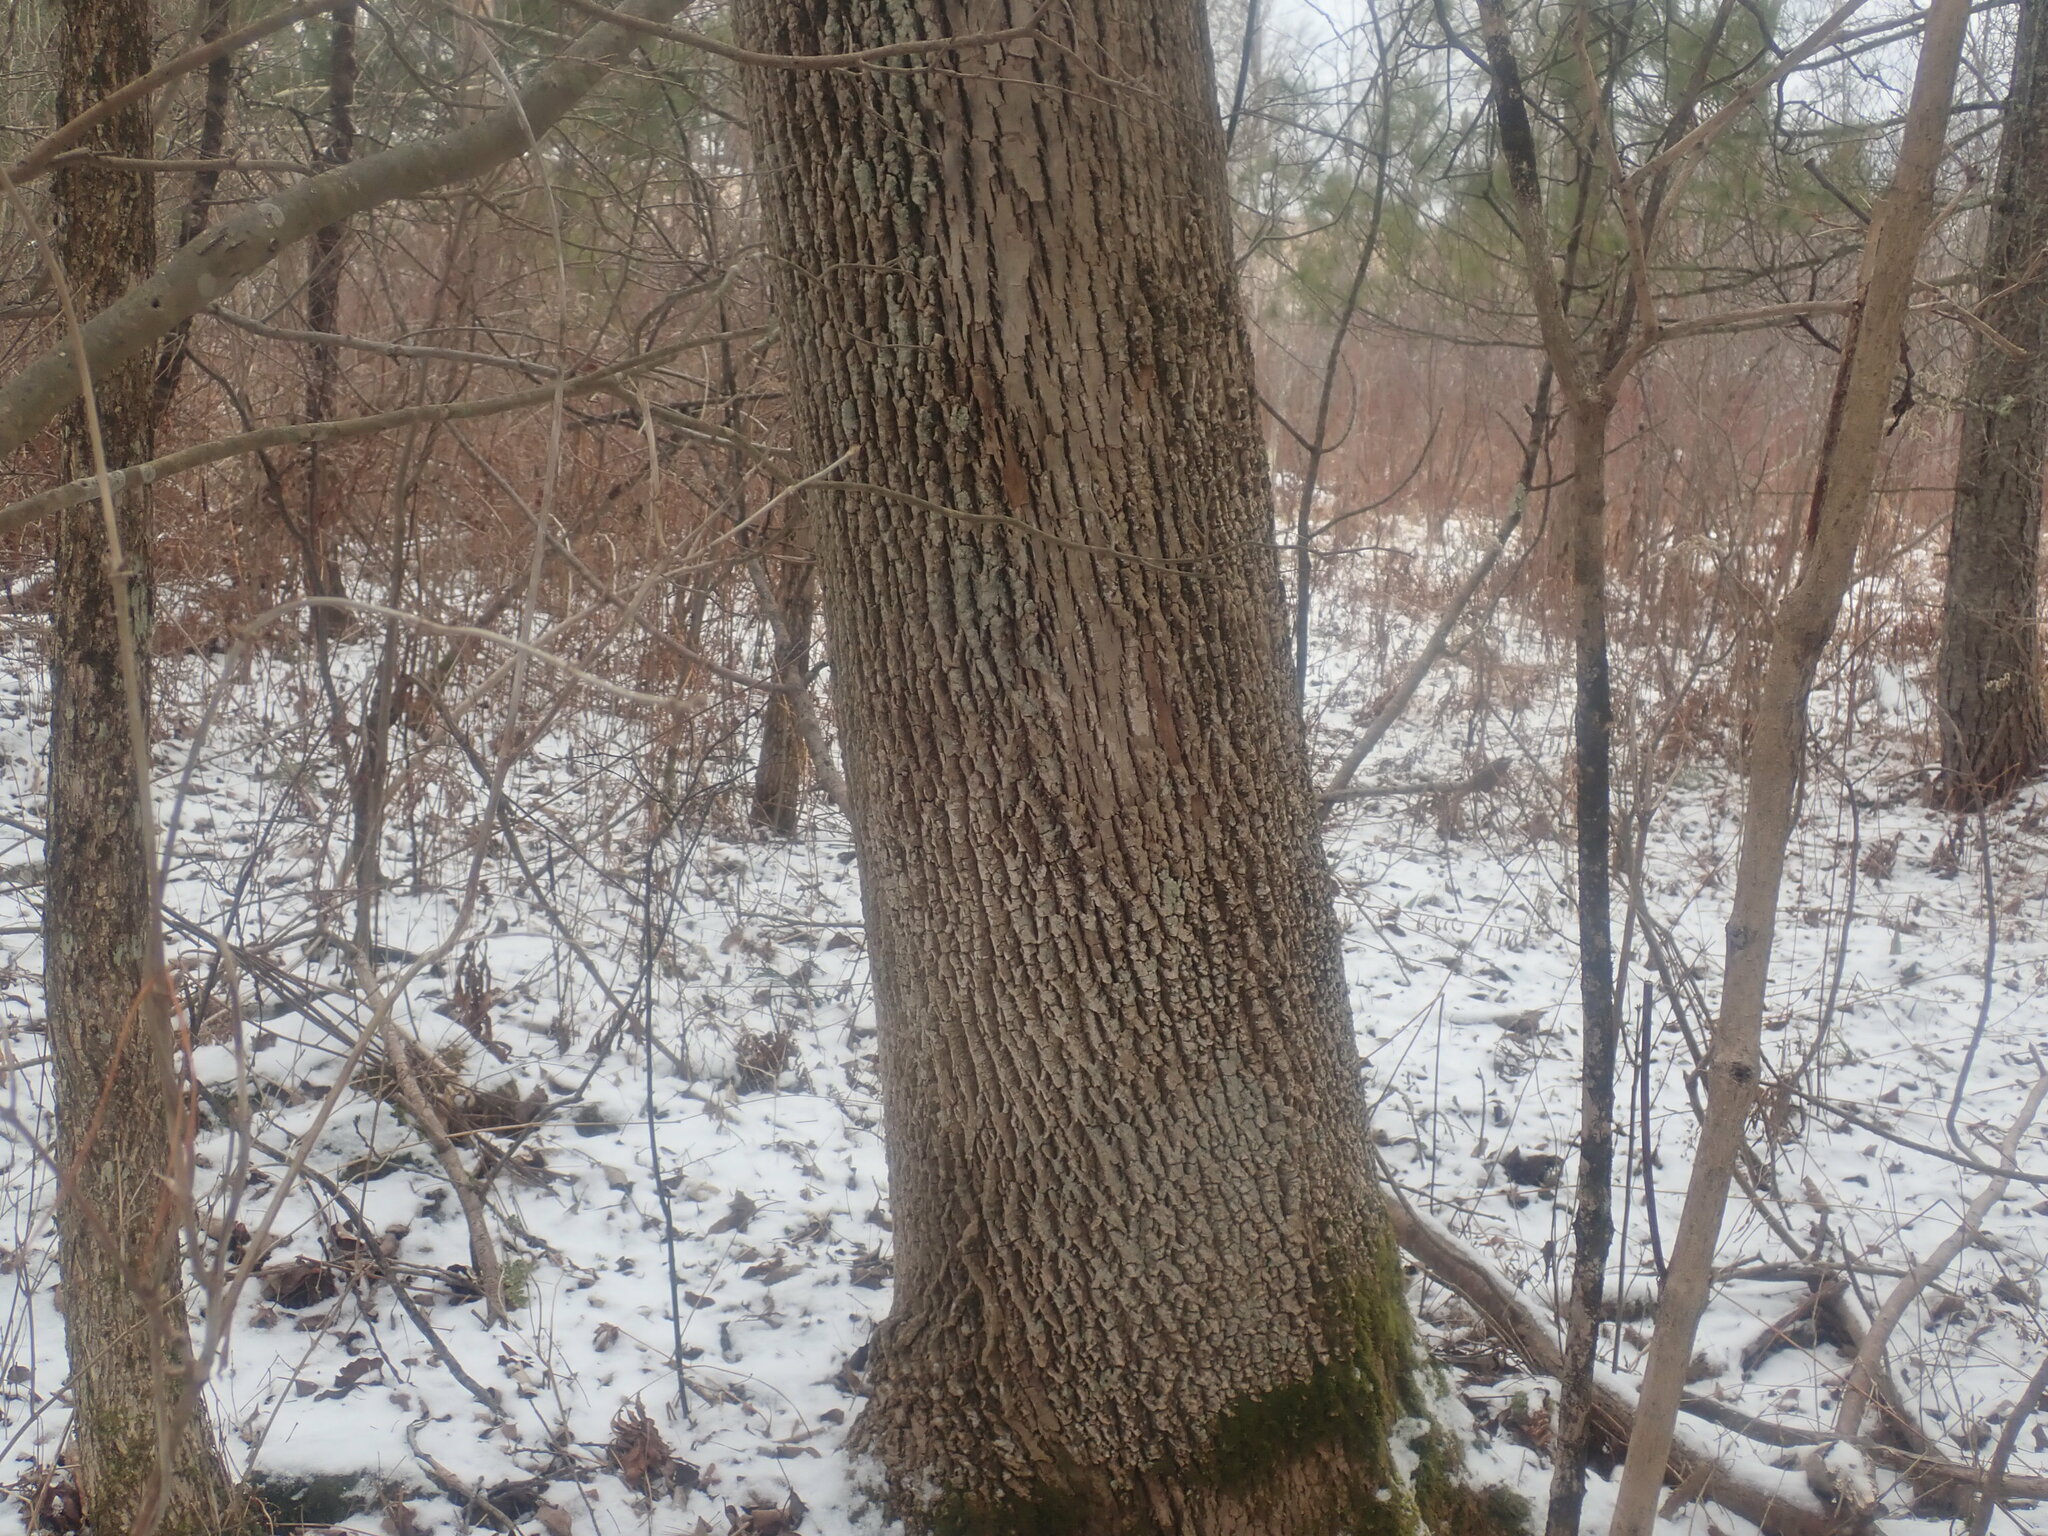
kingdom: Plantae
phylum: Tracheophyta
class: Magnoliopsida
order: Lamiales
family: Oleaceae
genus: Fraxinus
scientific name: Fraxinus americana
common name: White ash
